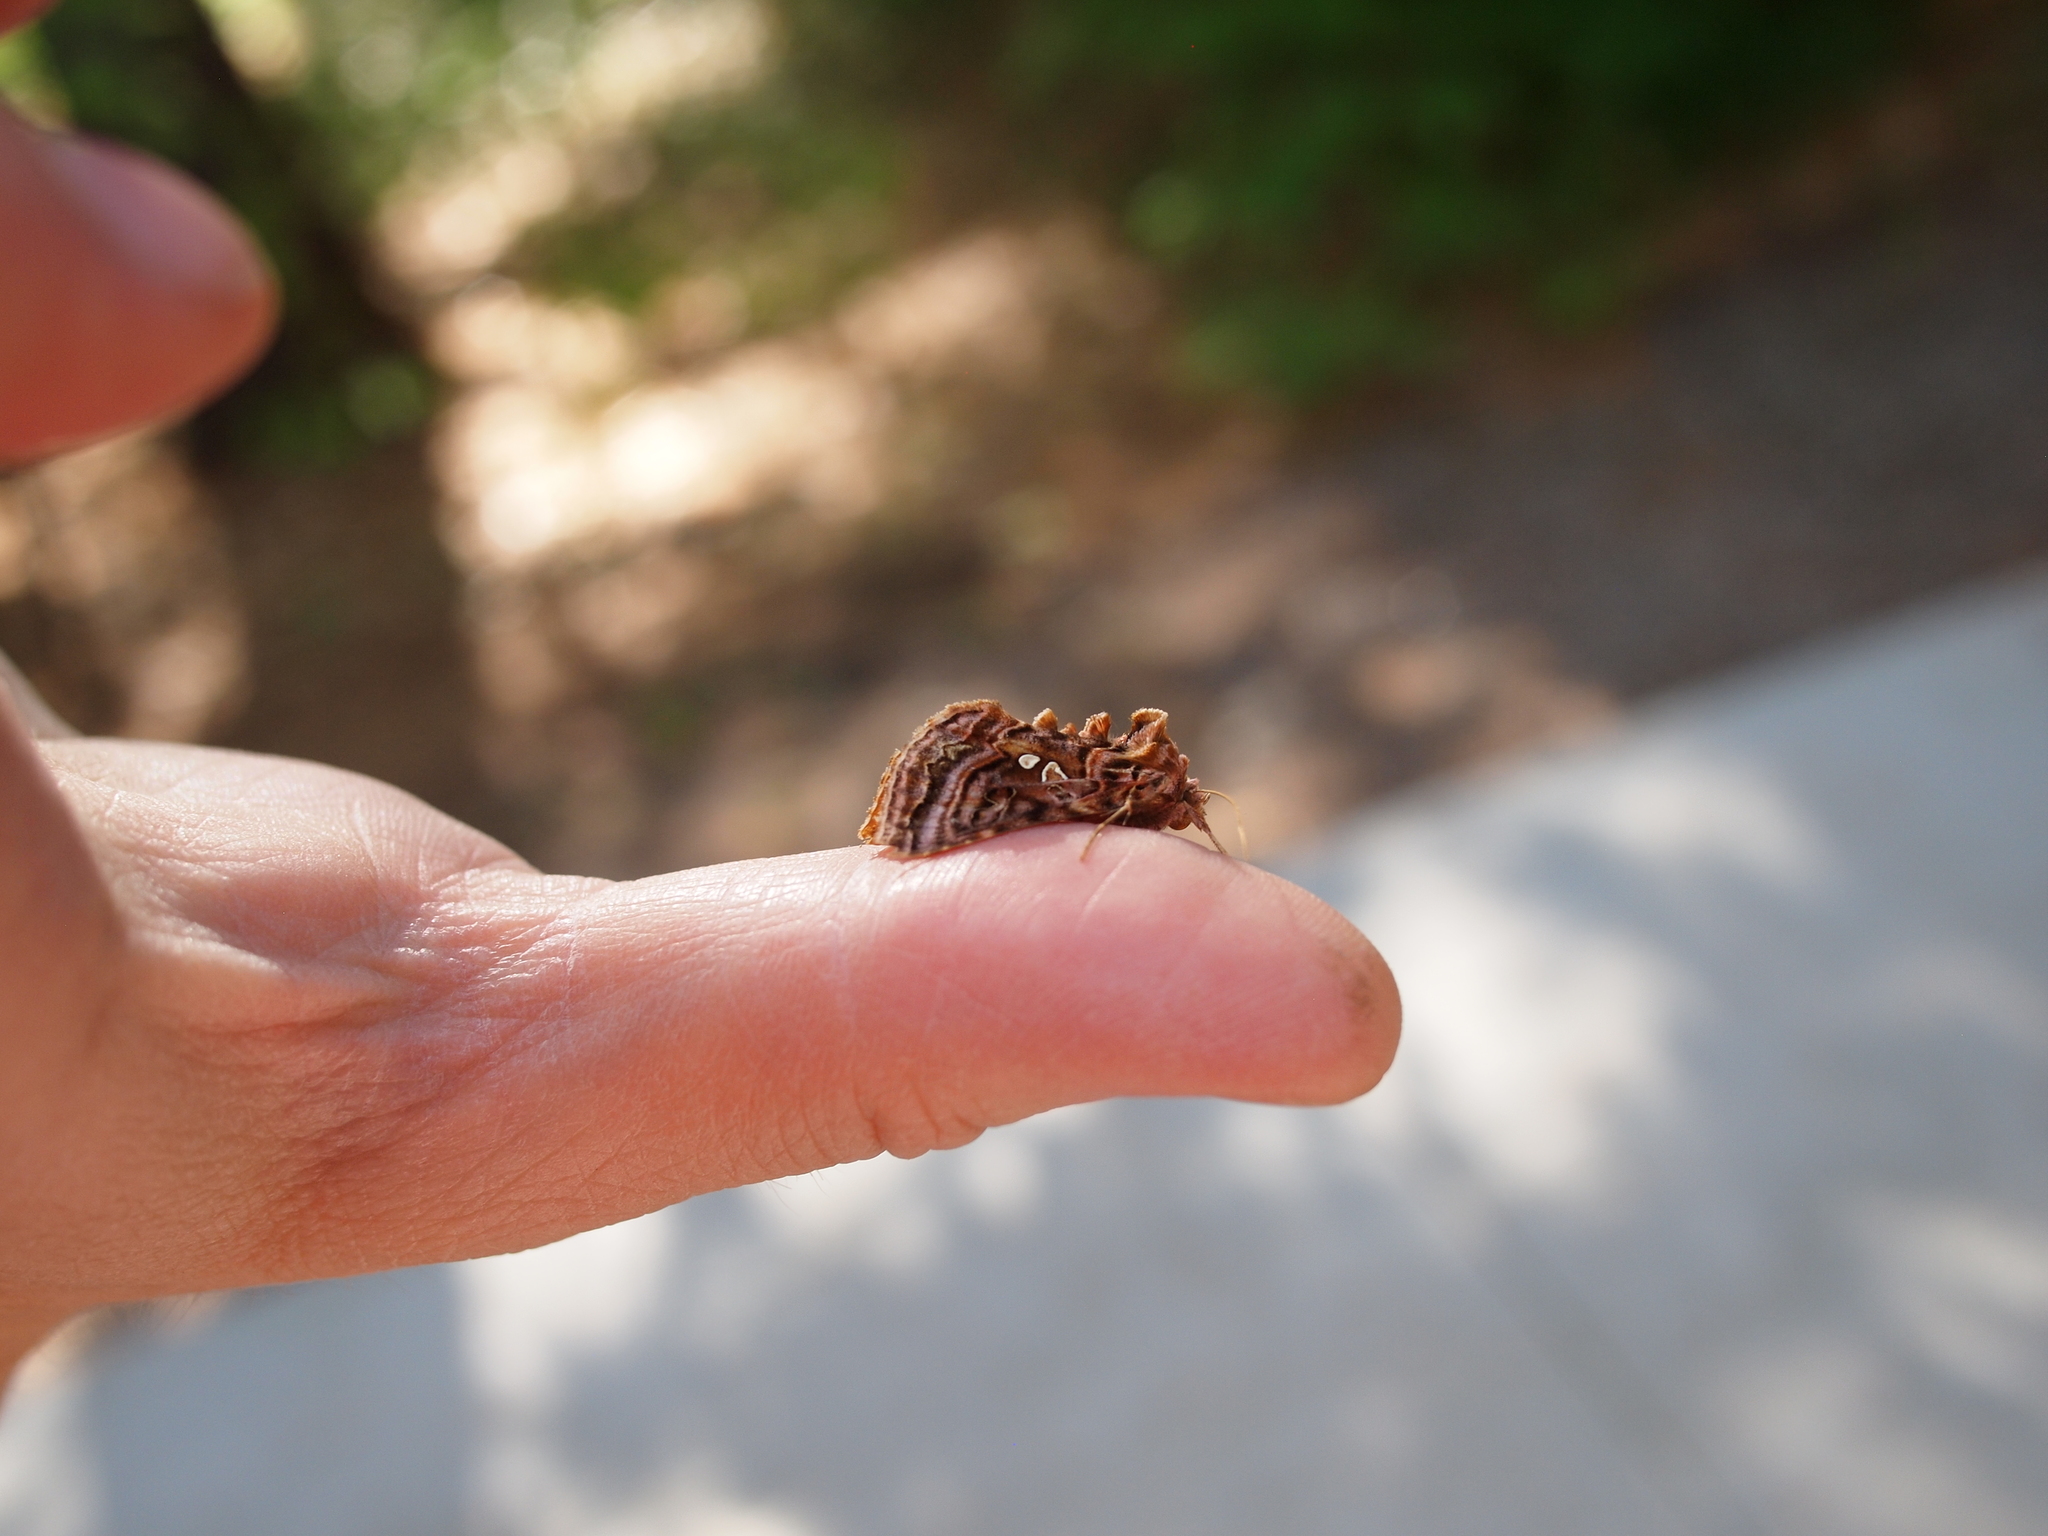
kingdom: Animalia
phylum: Arthropoda
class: Insecta
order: Lepidoptera
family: Noctuidae
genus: Autographa
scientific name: Autographa mappa
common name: Wavy chestnut y moth
